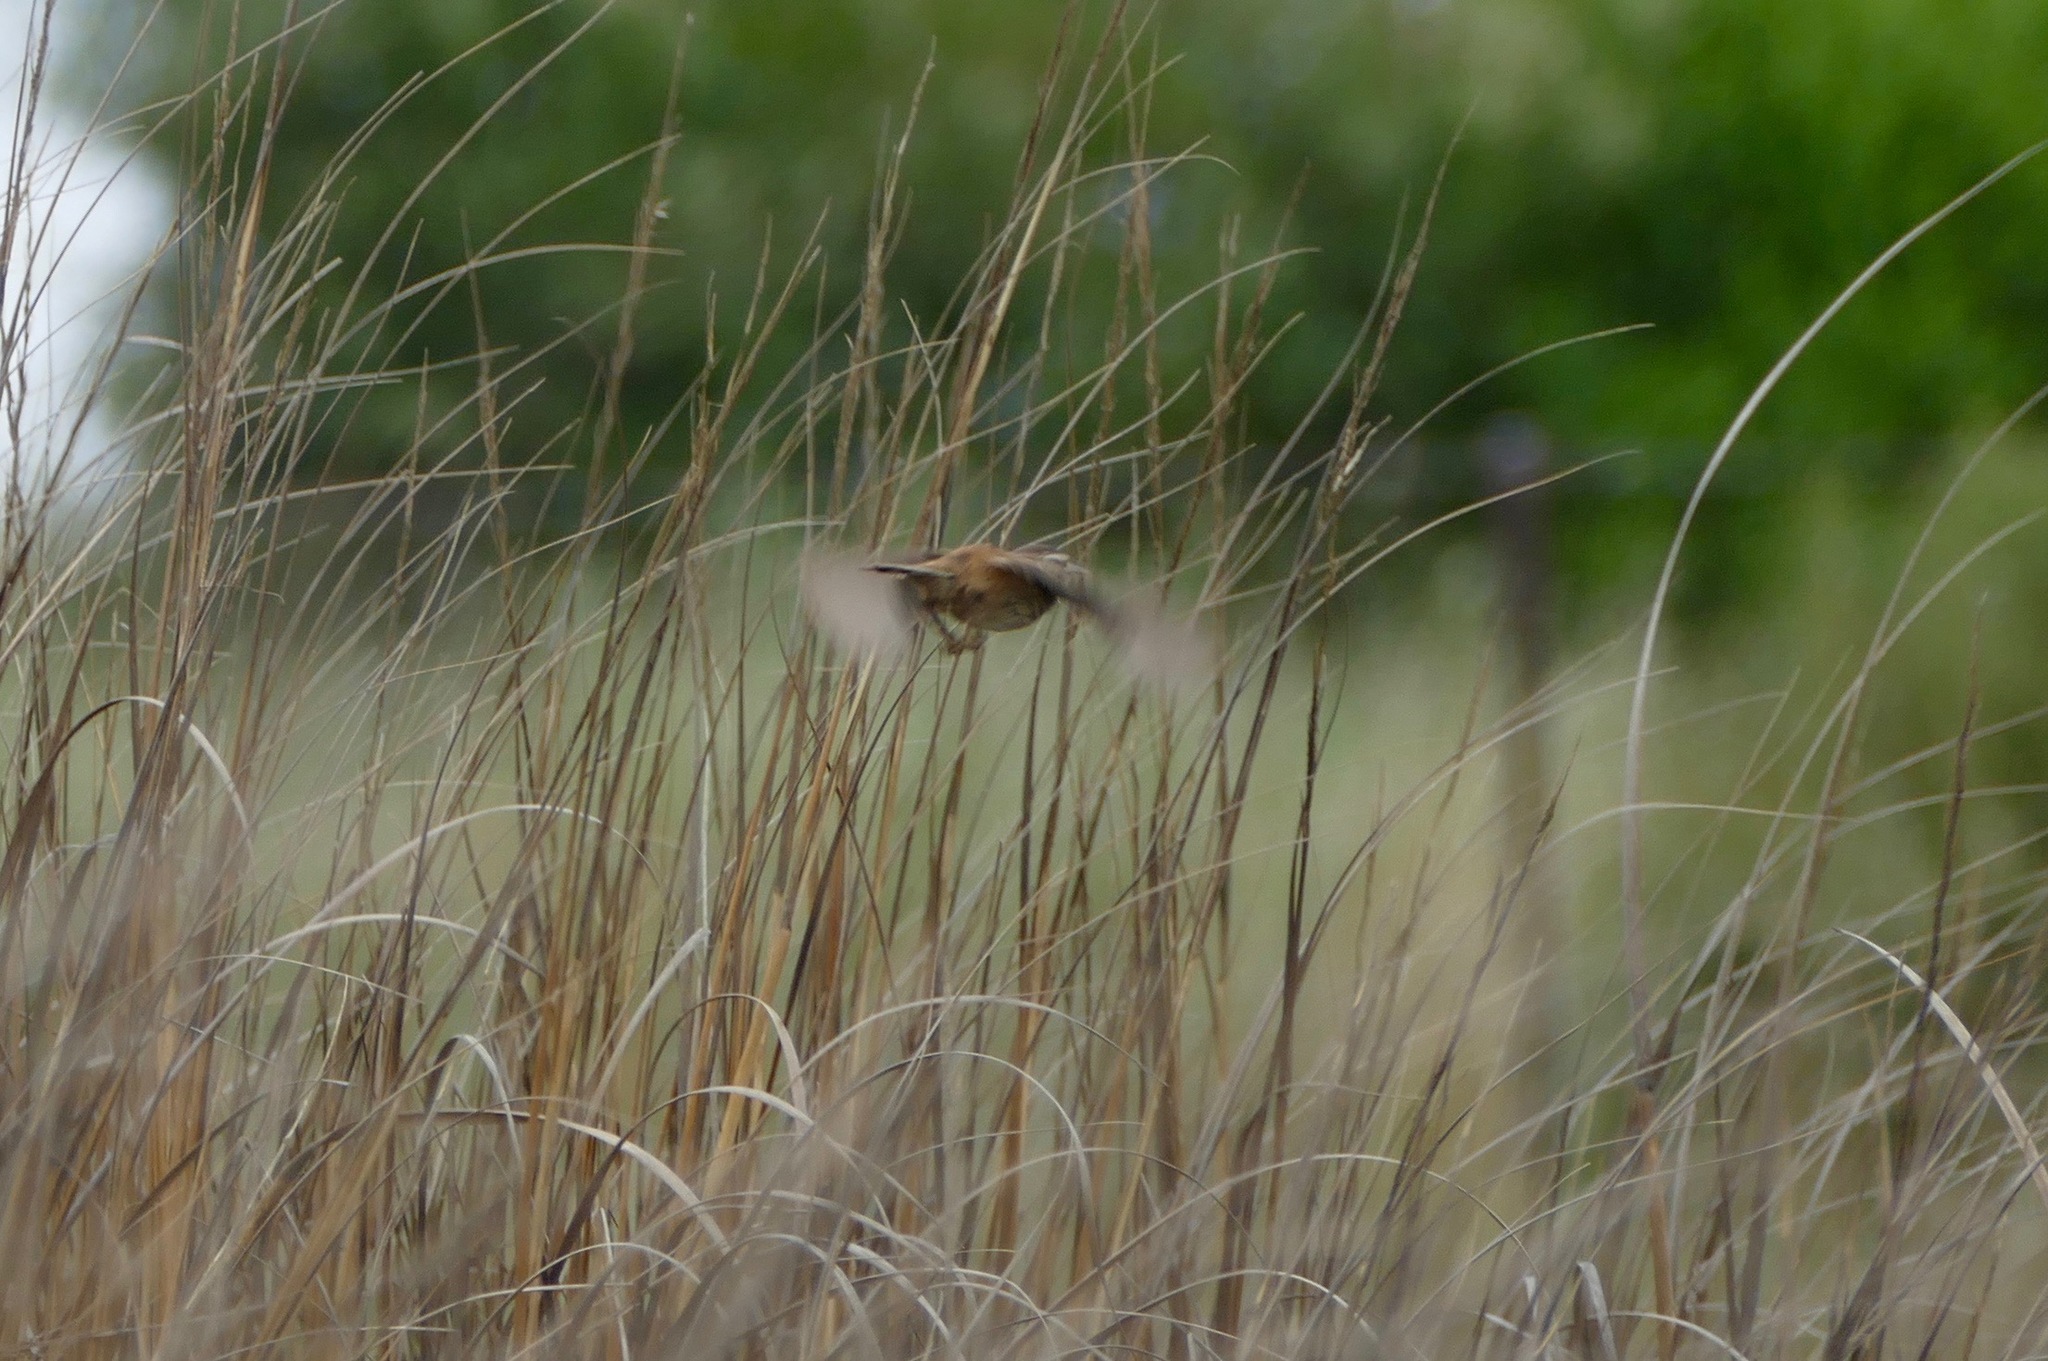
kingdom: Animalia
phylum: Chordata
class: Aves
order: Passeriformes
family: Troglodytidae
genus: Cistothorus
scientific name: Cistothorus palustris
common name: Marsh wren
